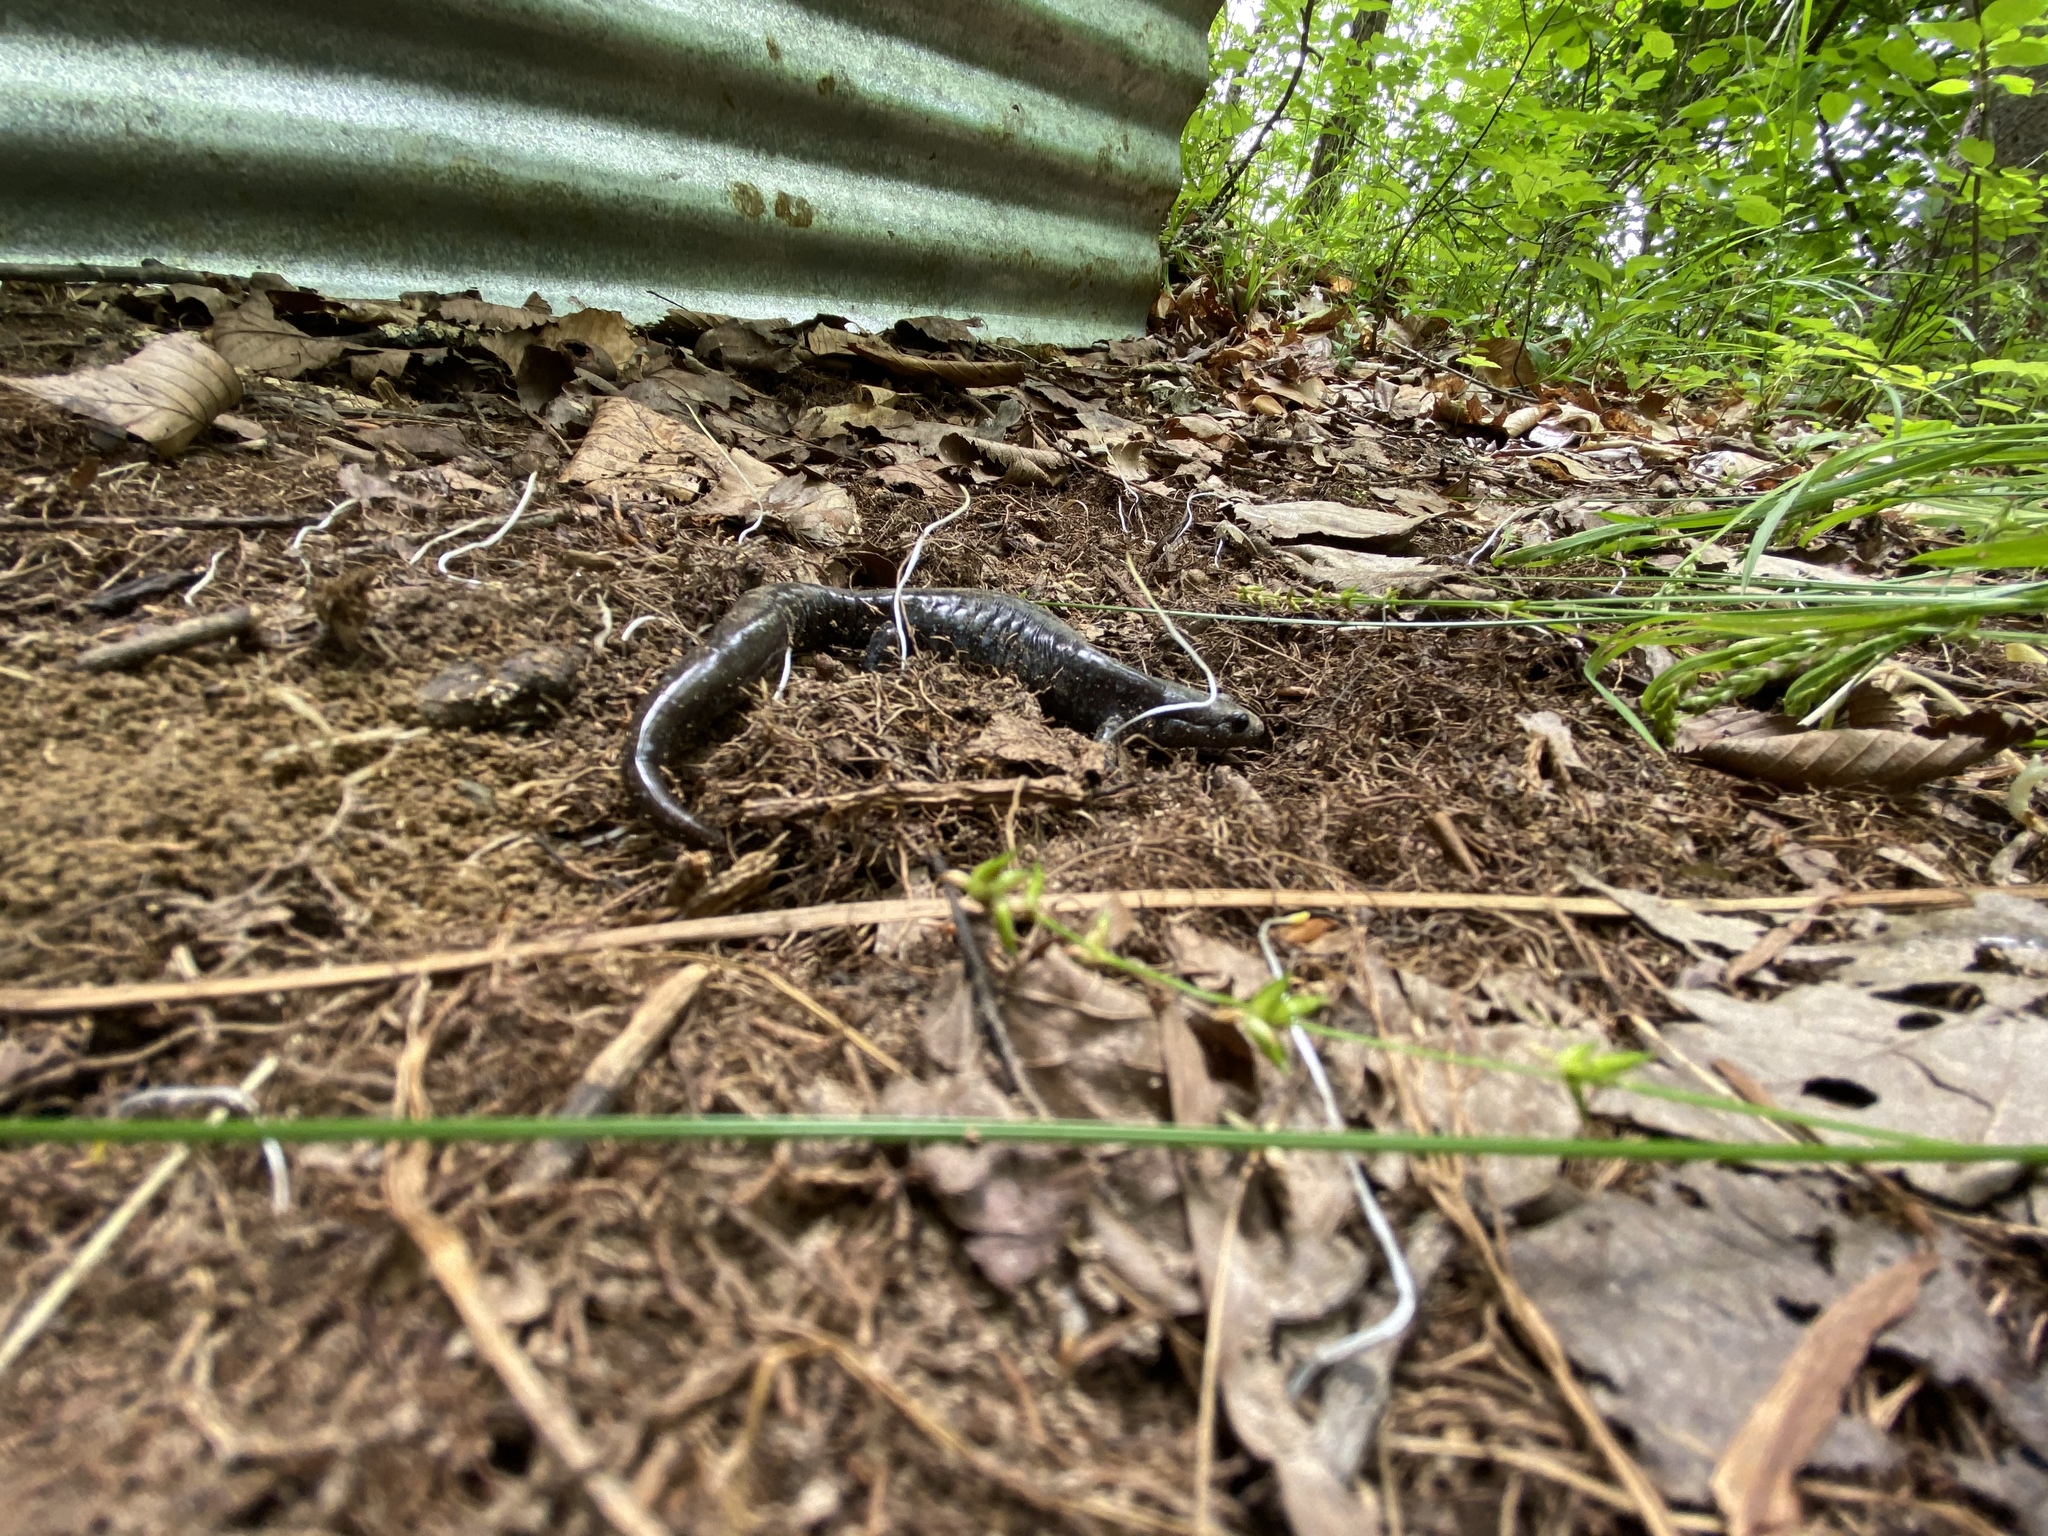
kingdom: Animalia
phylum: Chordata
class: Amphibia
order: Caudata
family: Ambystomatidae
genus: Ambystoma
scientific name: Ambystoma unisexual
